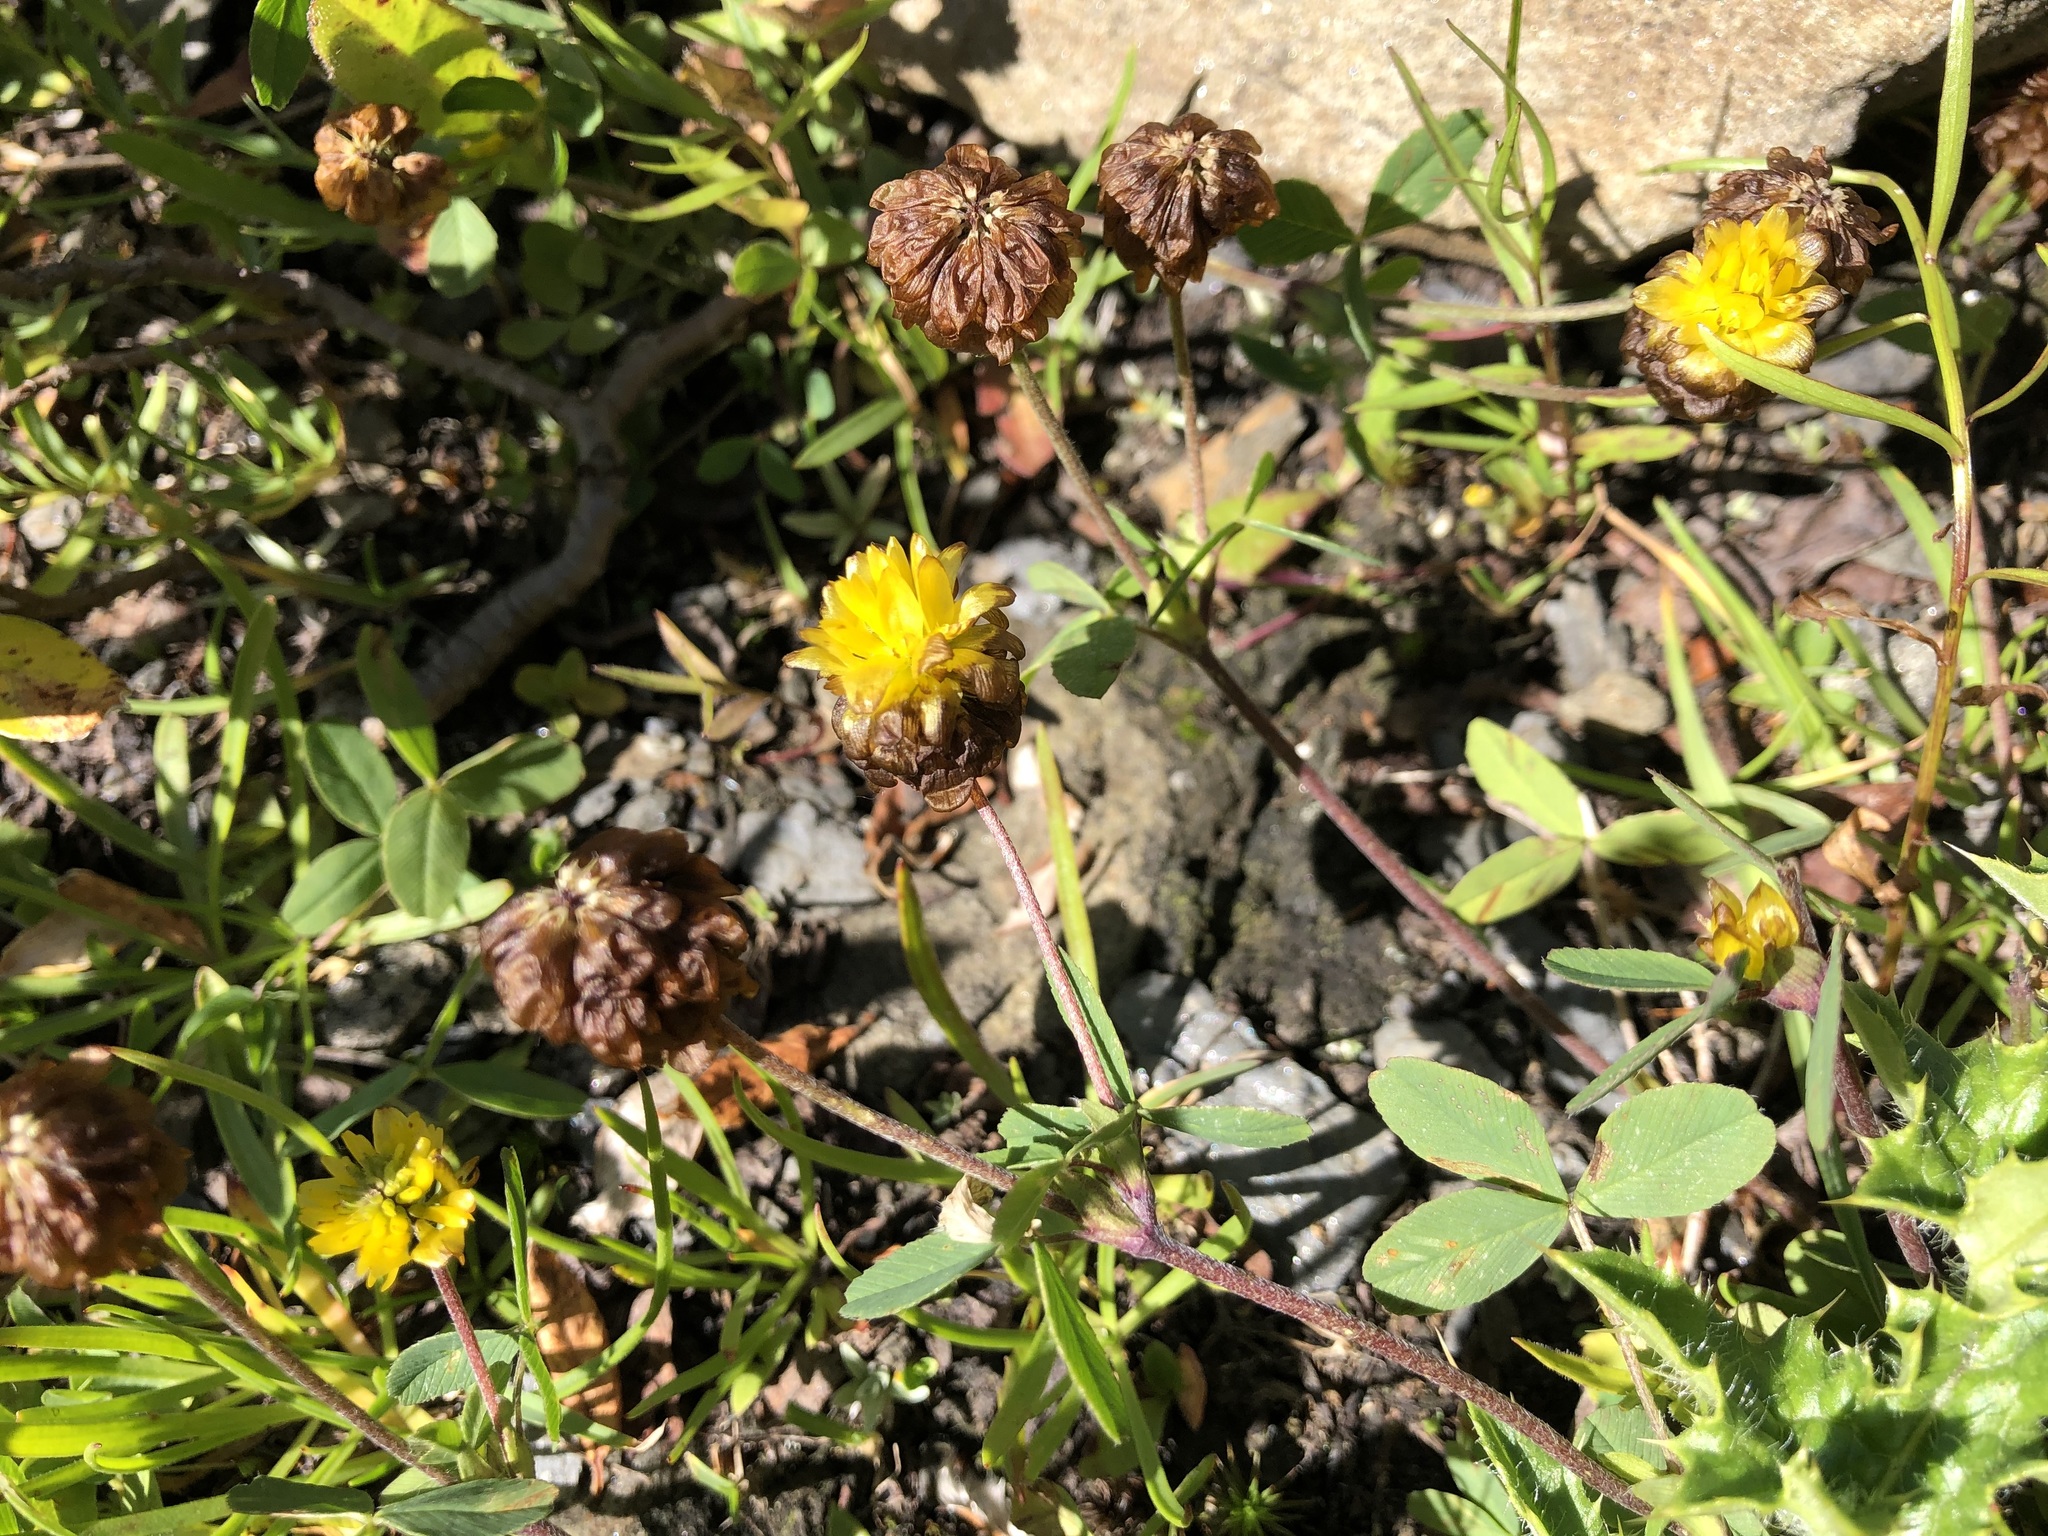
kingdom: Plantae
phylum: Tracheophyta
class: Magnoliopsida
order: Fabales
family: Fabaceae
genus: Trifolium
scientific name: Trifolium badium
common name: Brown clover
